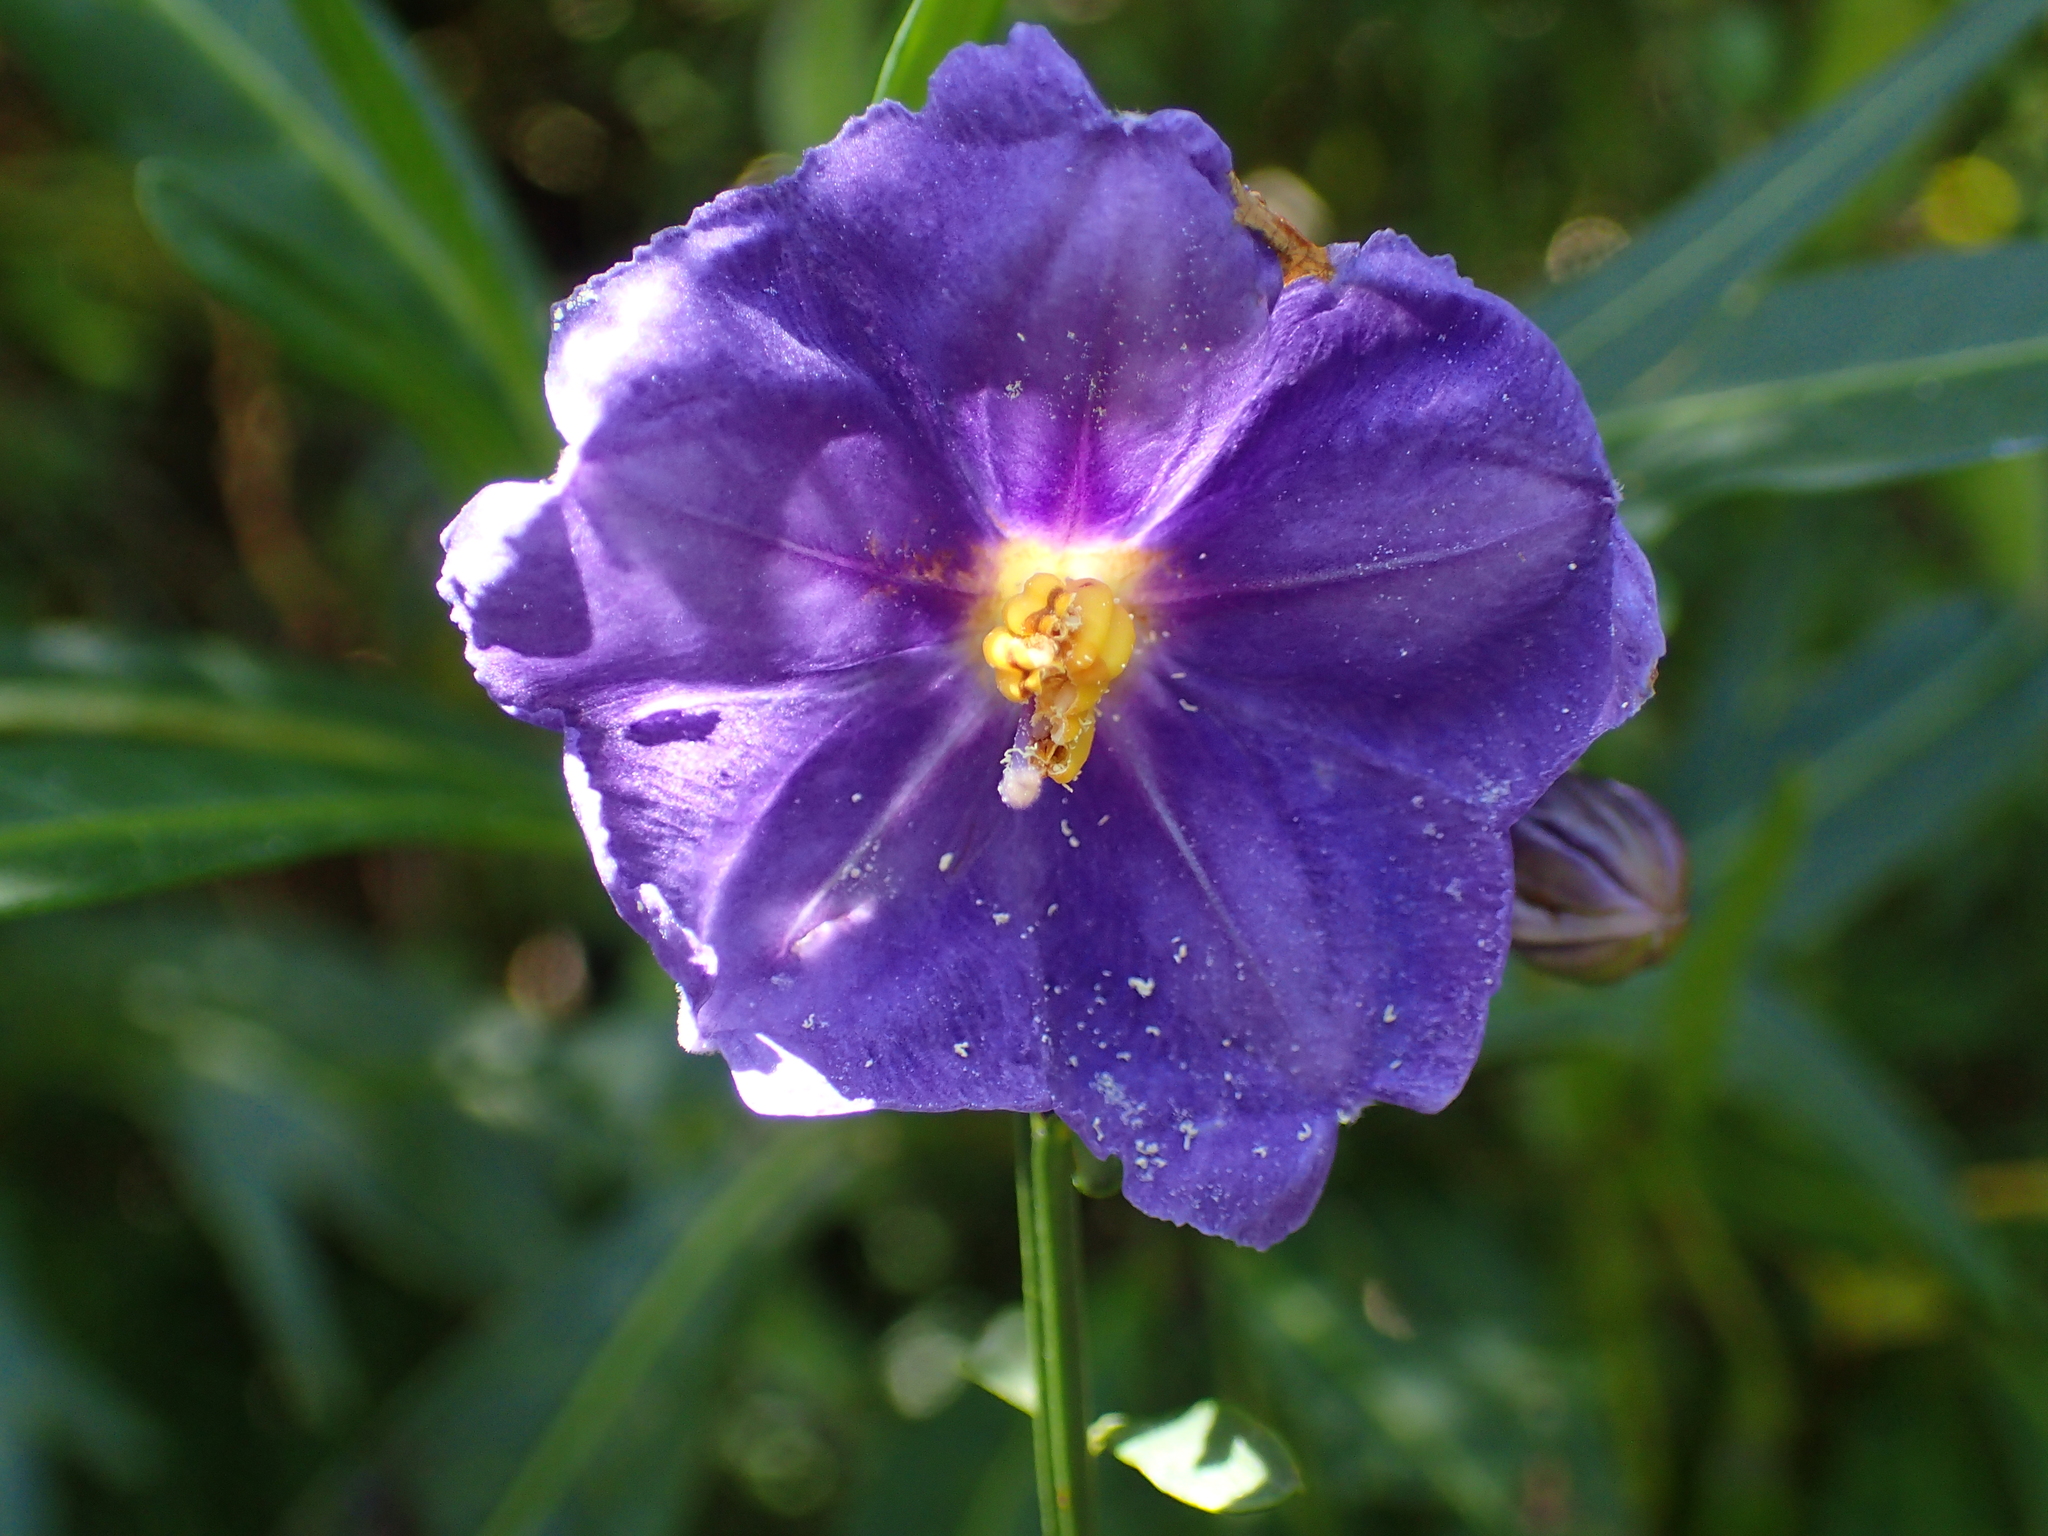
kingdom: Plantae
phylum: Tracheophyta
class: Magnoliopsida
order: Solanales
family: Solanaceae
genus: Solanum
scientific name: Solanum laciniatum
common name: Kangaroo-apple
